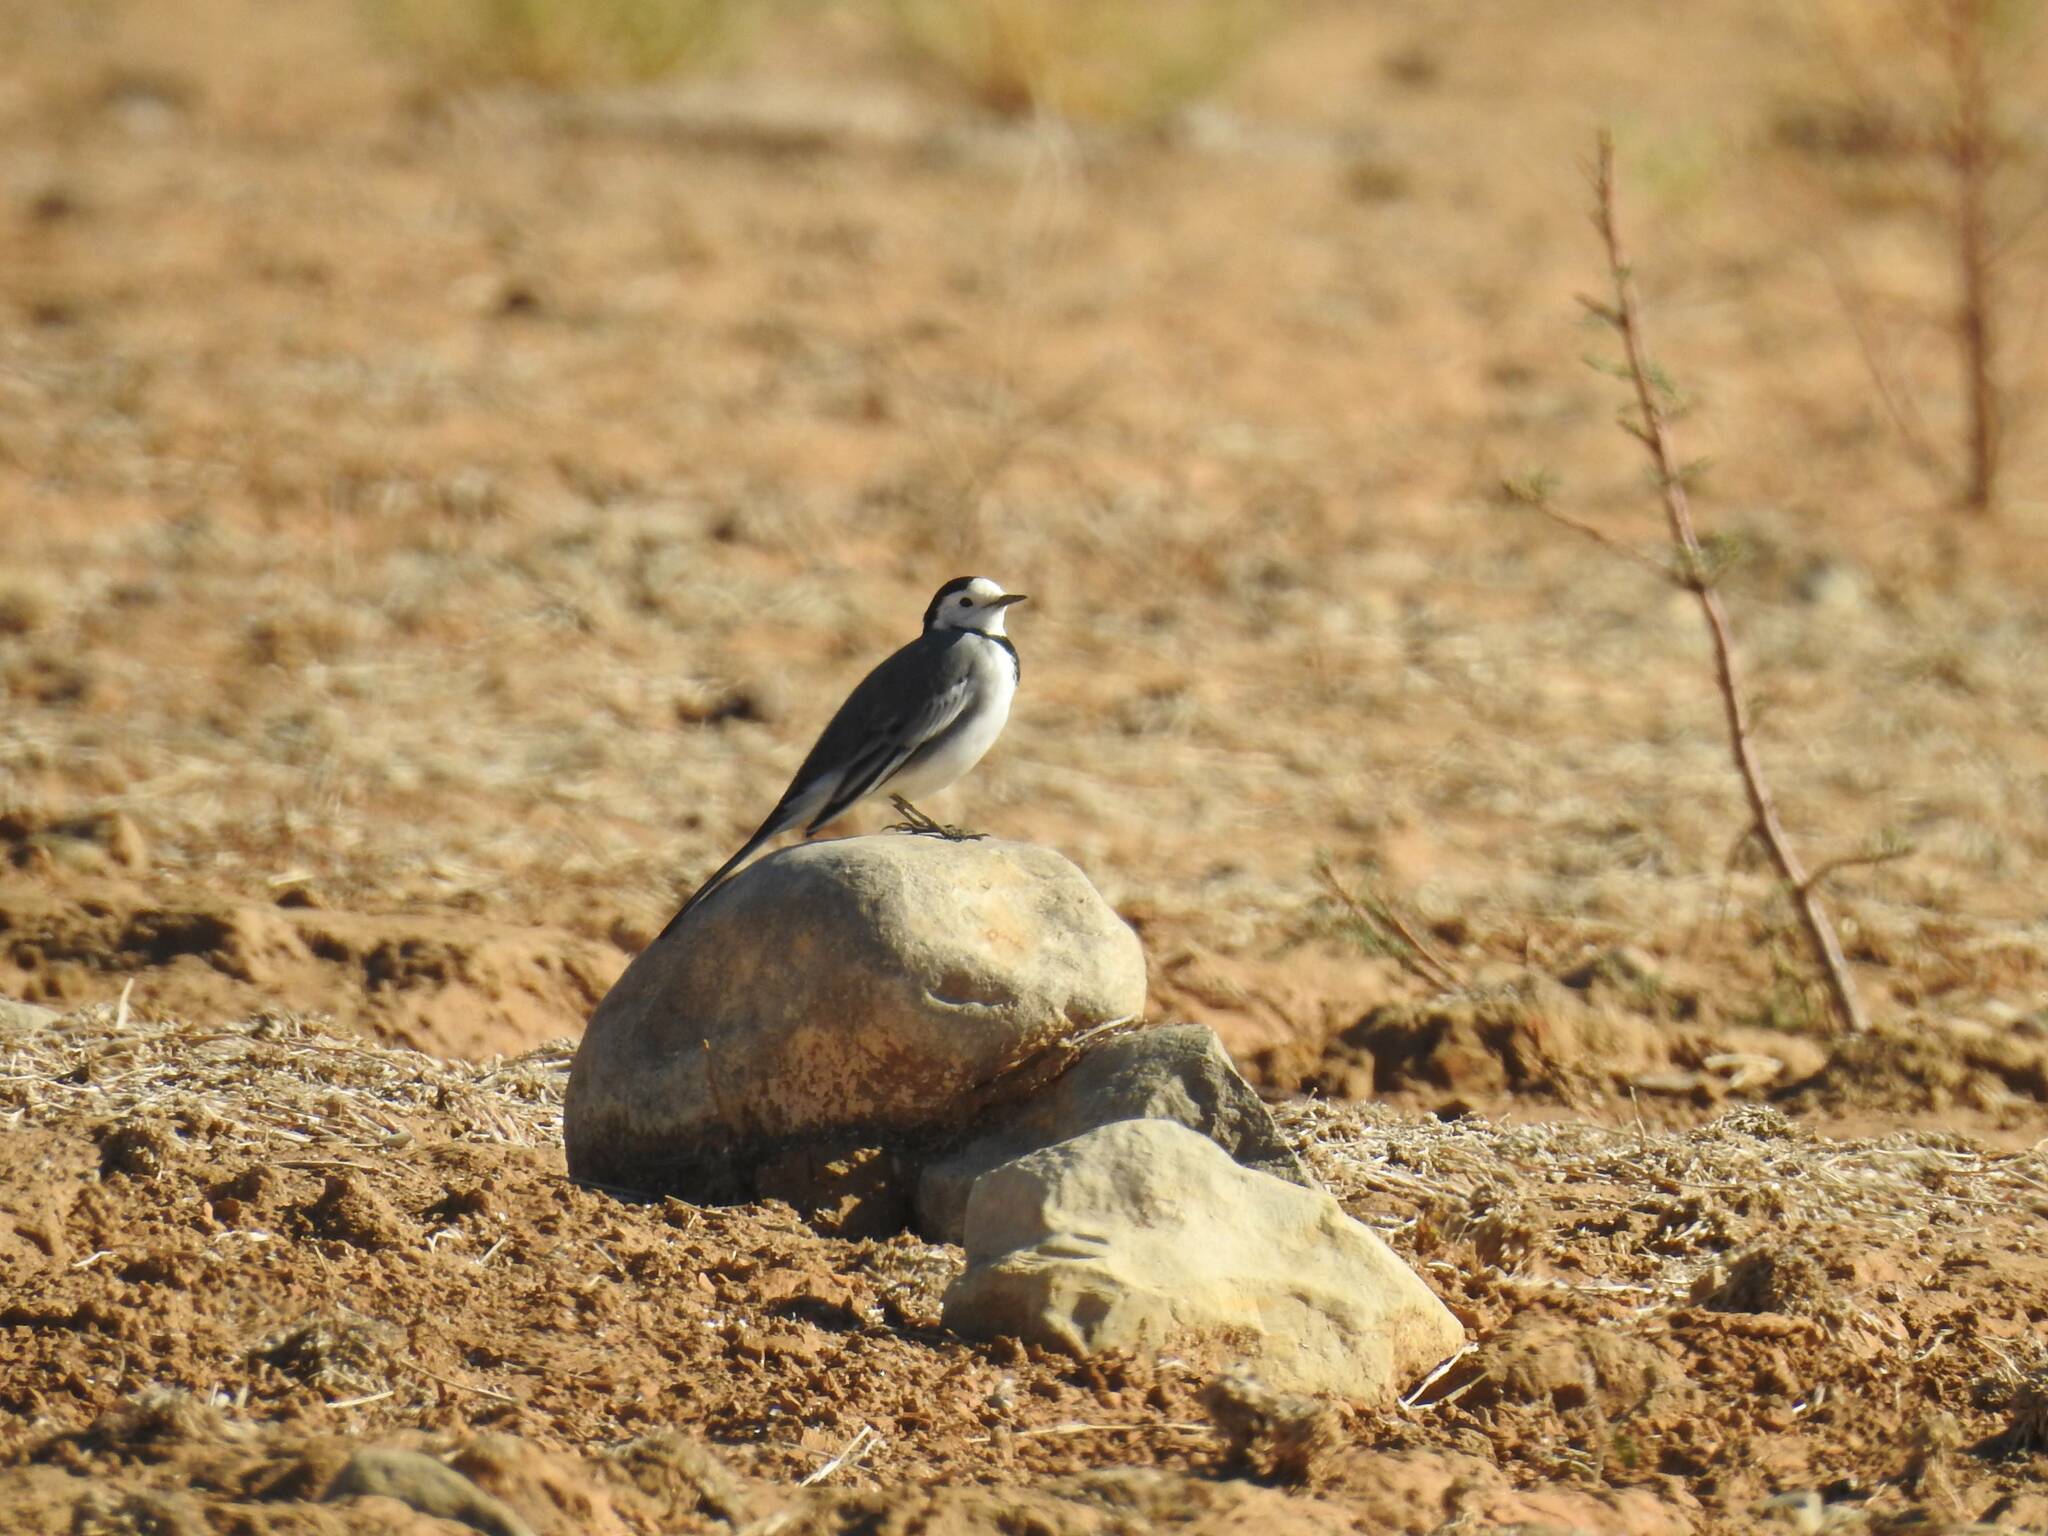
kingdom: Animalia
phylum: Chordata
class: Aves
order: Passeriformes
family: Motacillidae
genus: Motacilla
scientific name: Motacilla alba
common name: White wagtail
